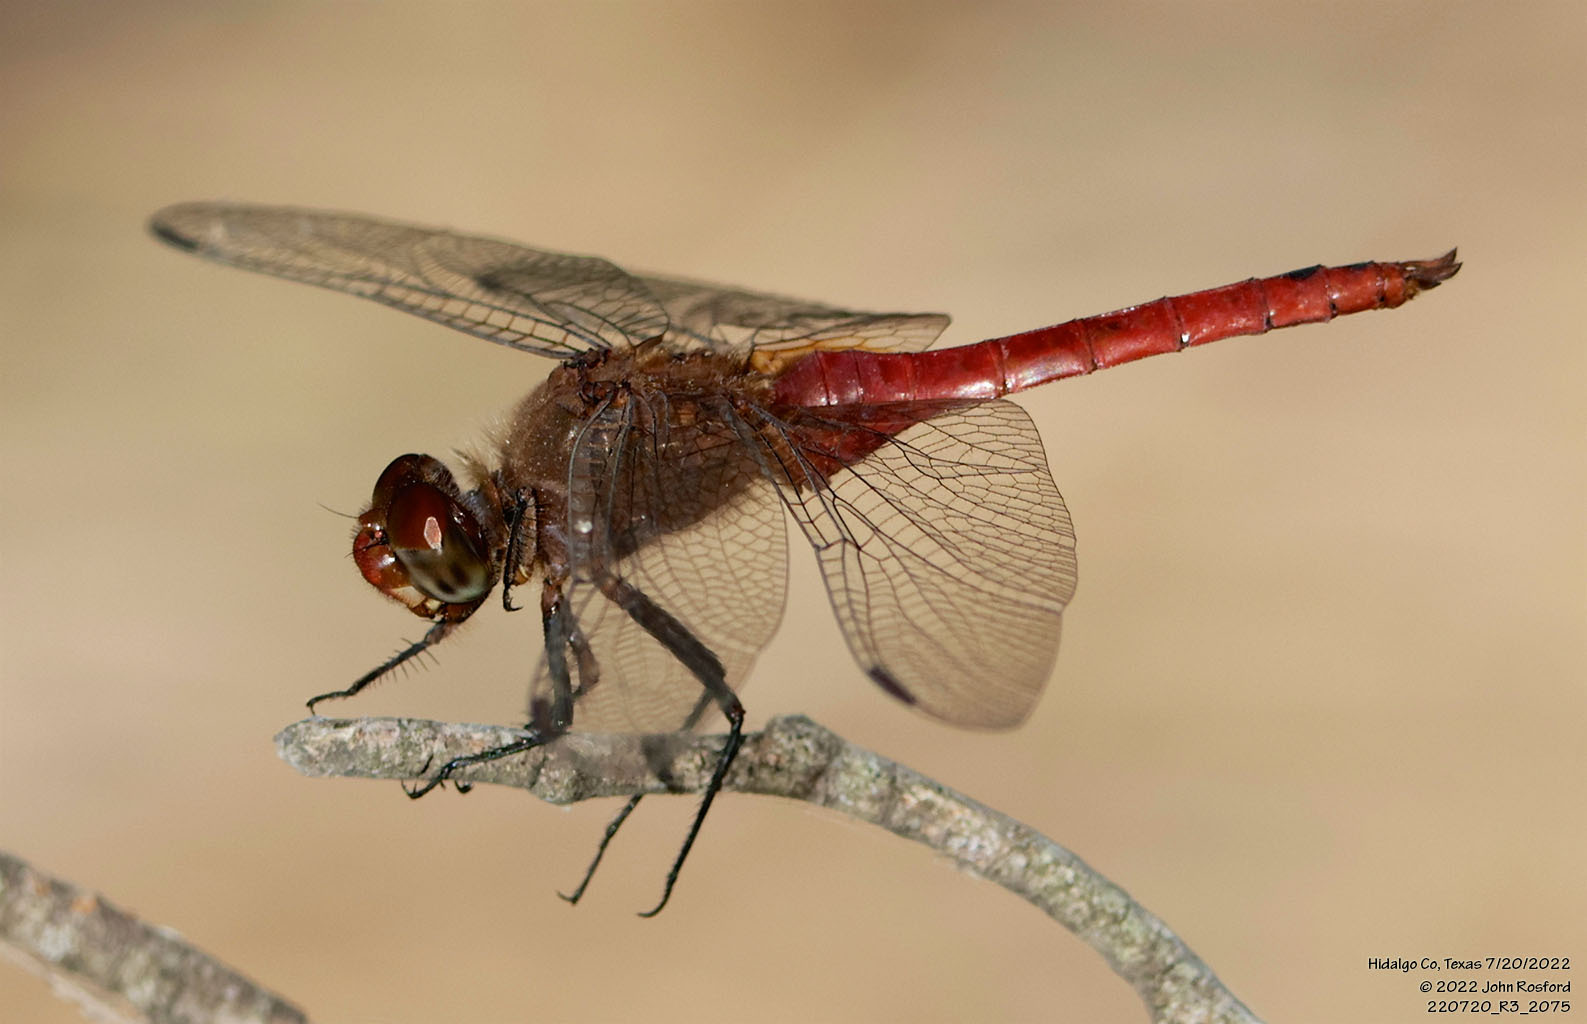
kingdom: Animalia
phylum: Arthropoda
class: Insecta
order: Odonata
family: Libellulidae
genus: Brachymesia
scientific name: Brachymesia furcata
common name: Red-taled pennant
